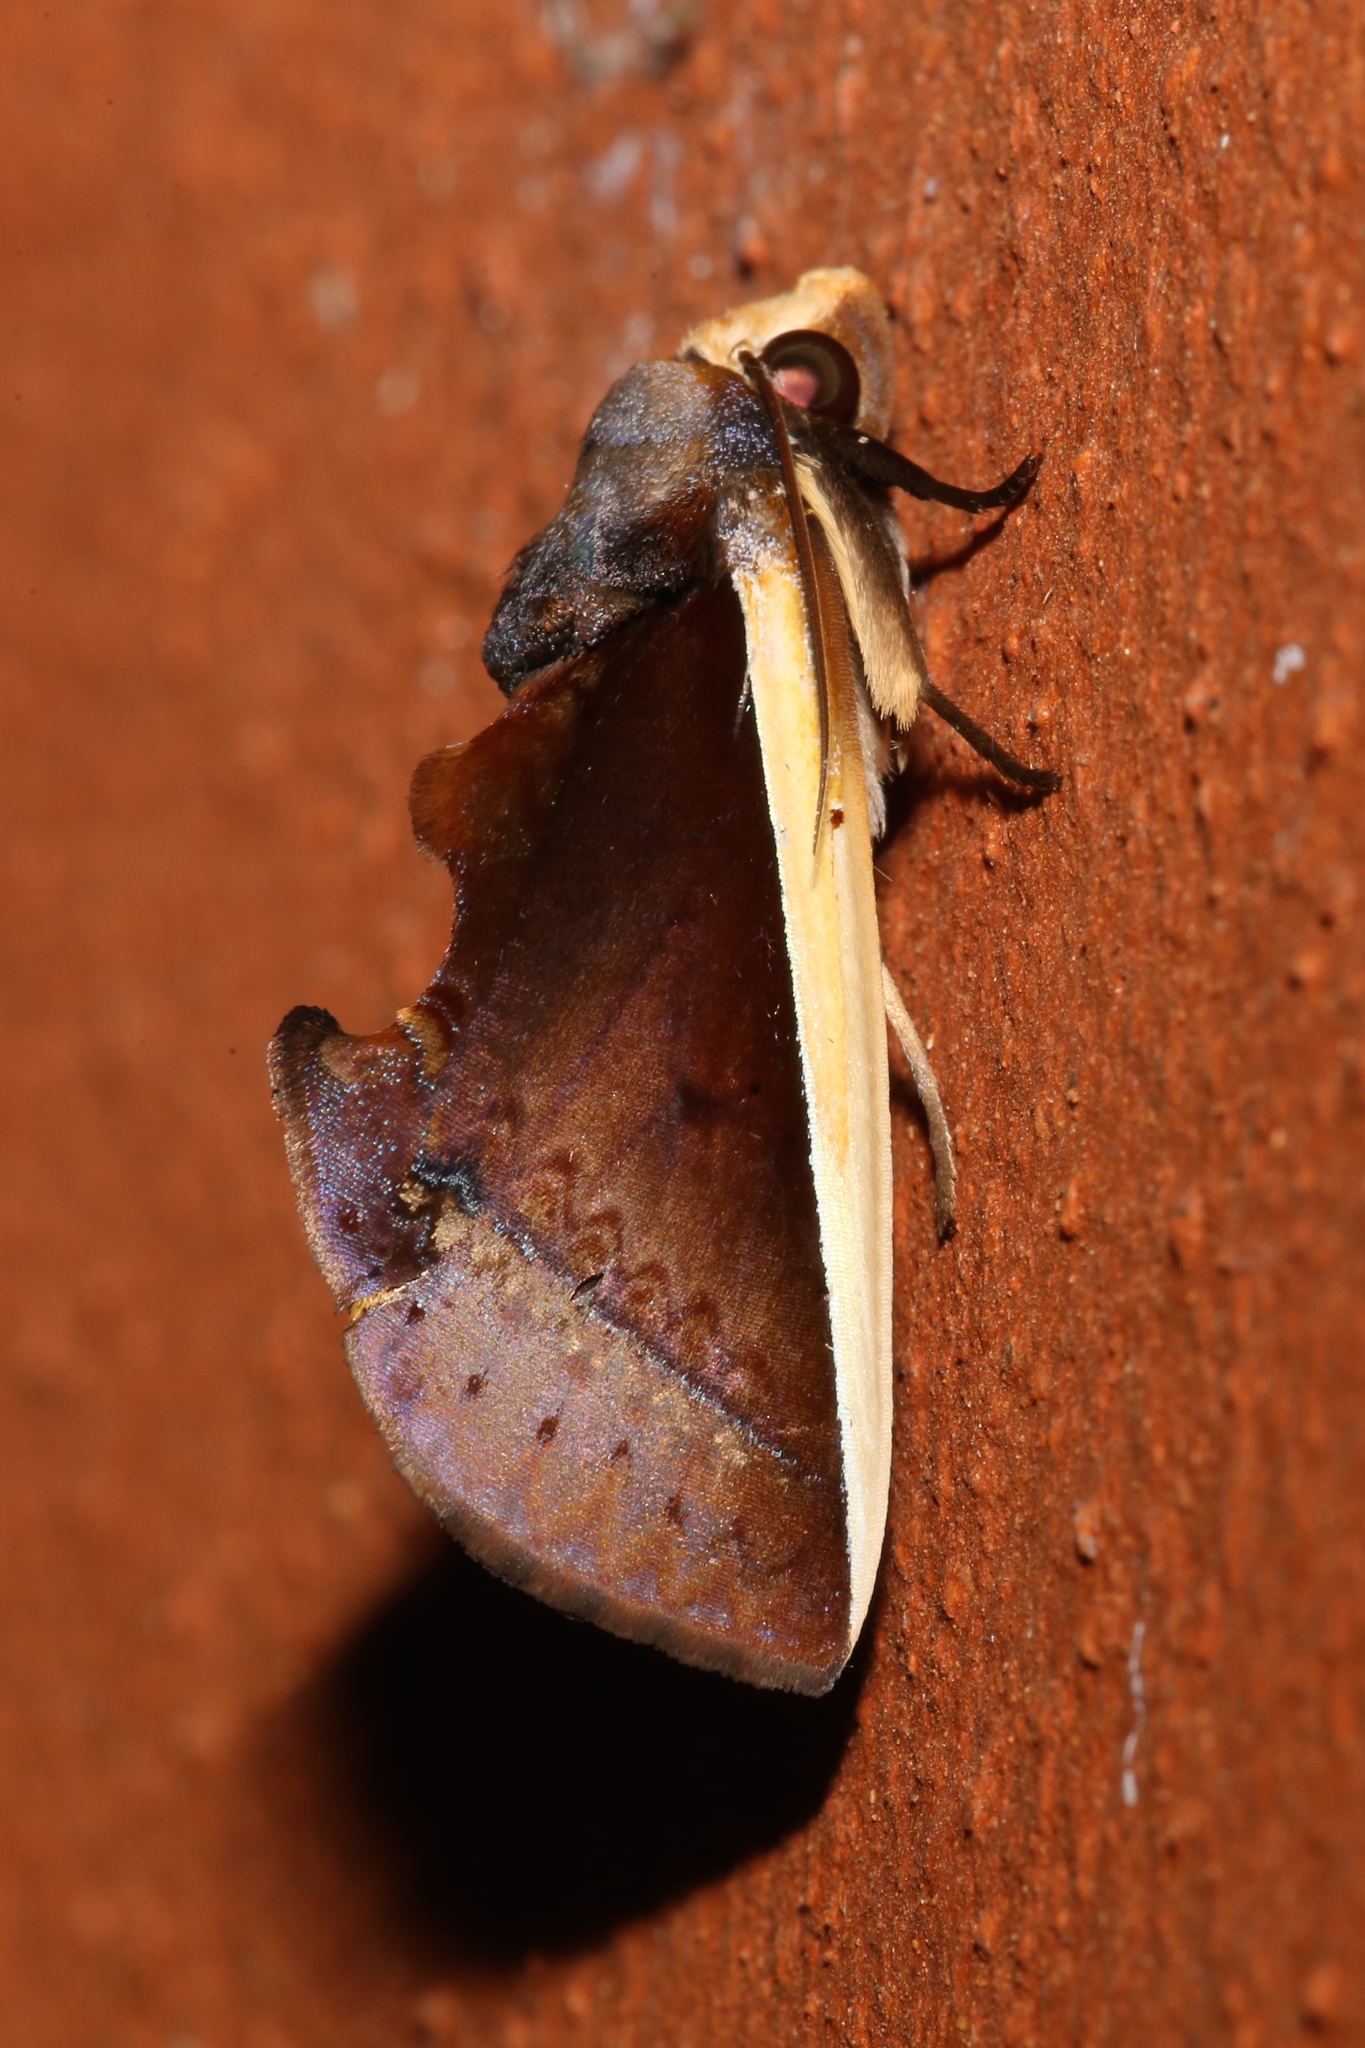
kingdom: Animalia
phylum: Arthropoda
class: Insecta
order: Lepidoptera
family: Erebidae
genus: Gonodonta
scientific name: Gonodonta pyrgo
